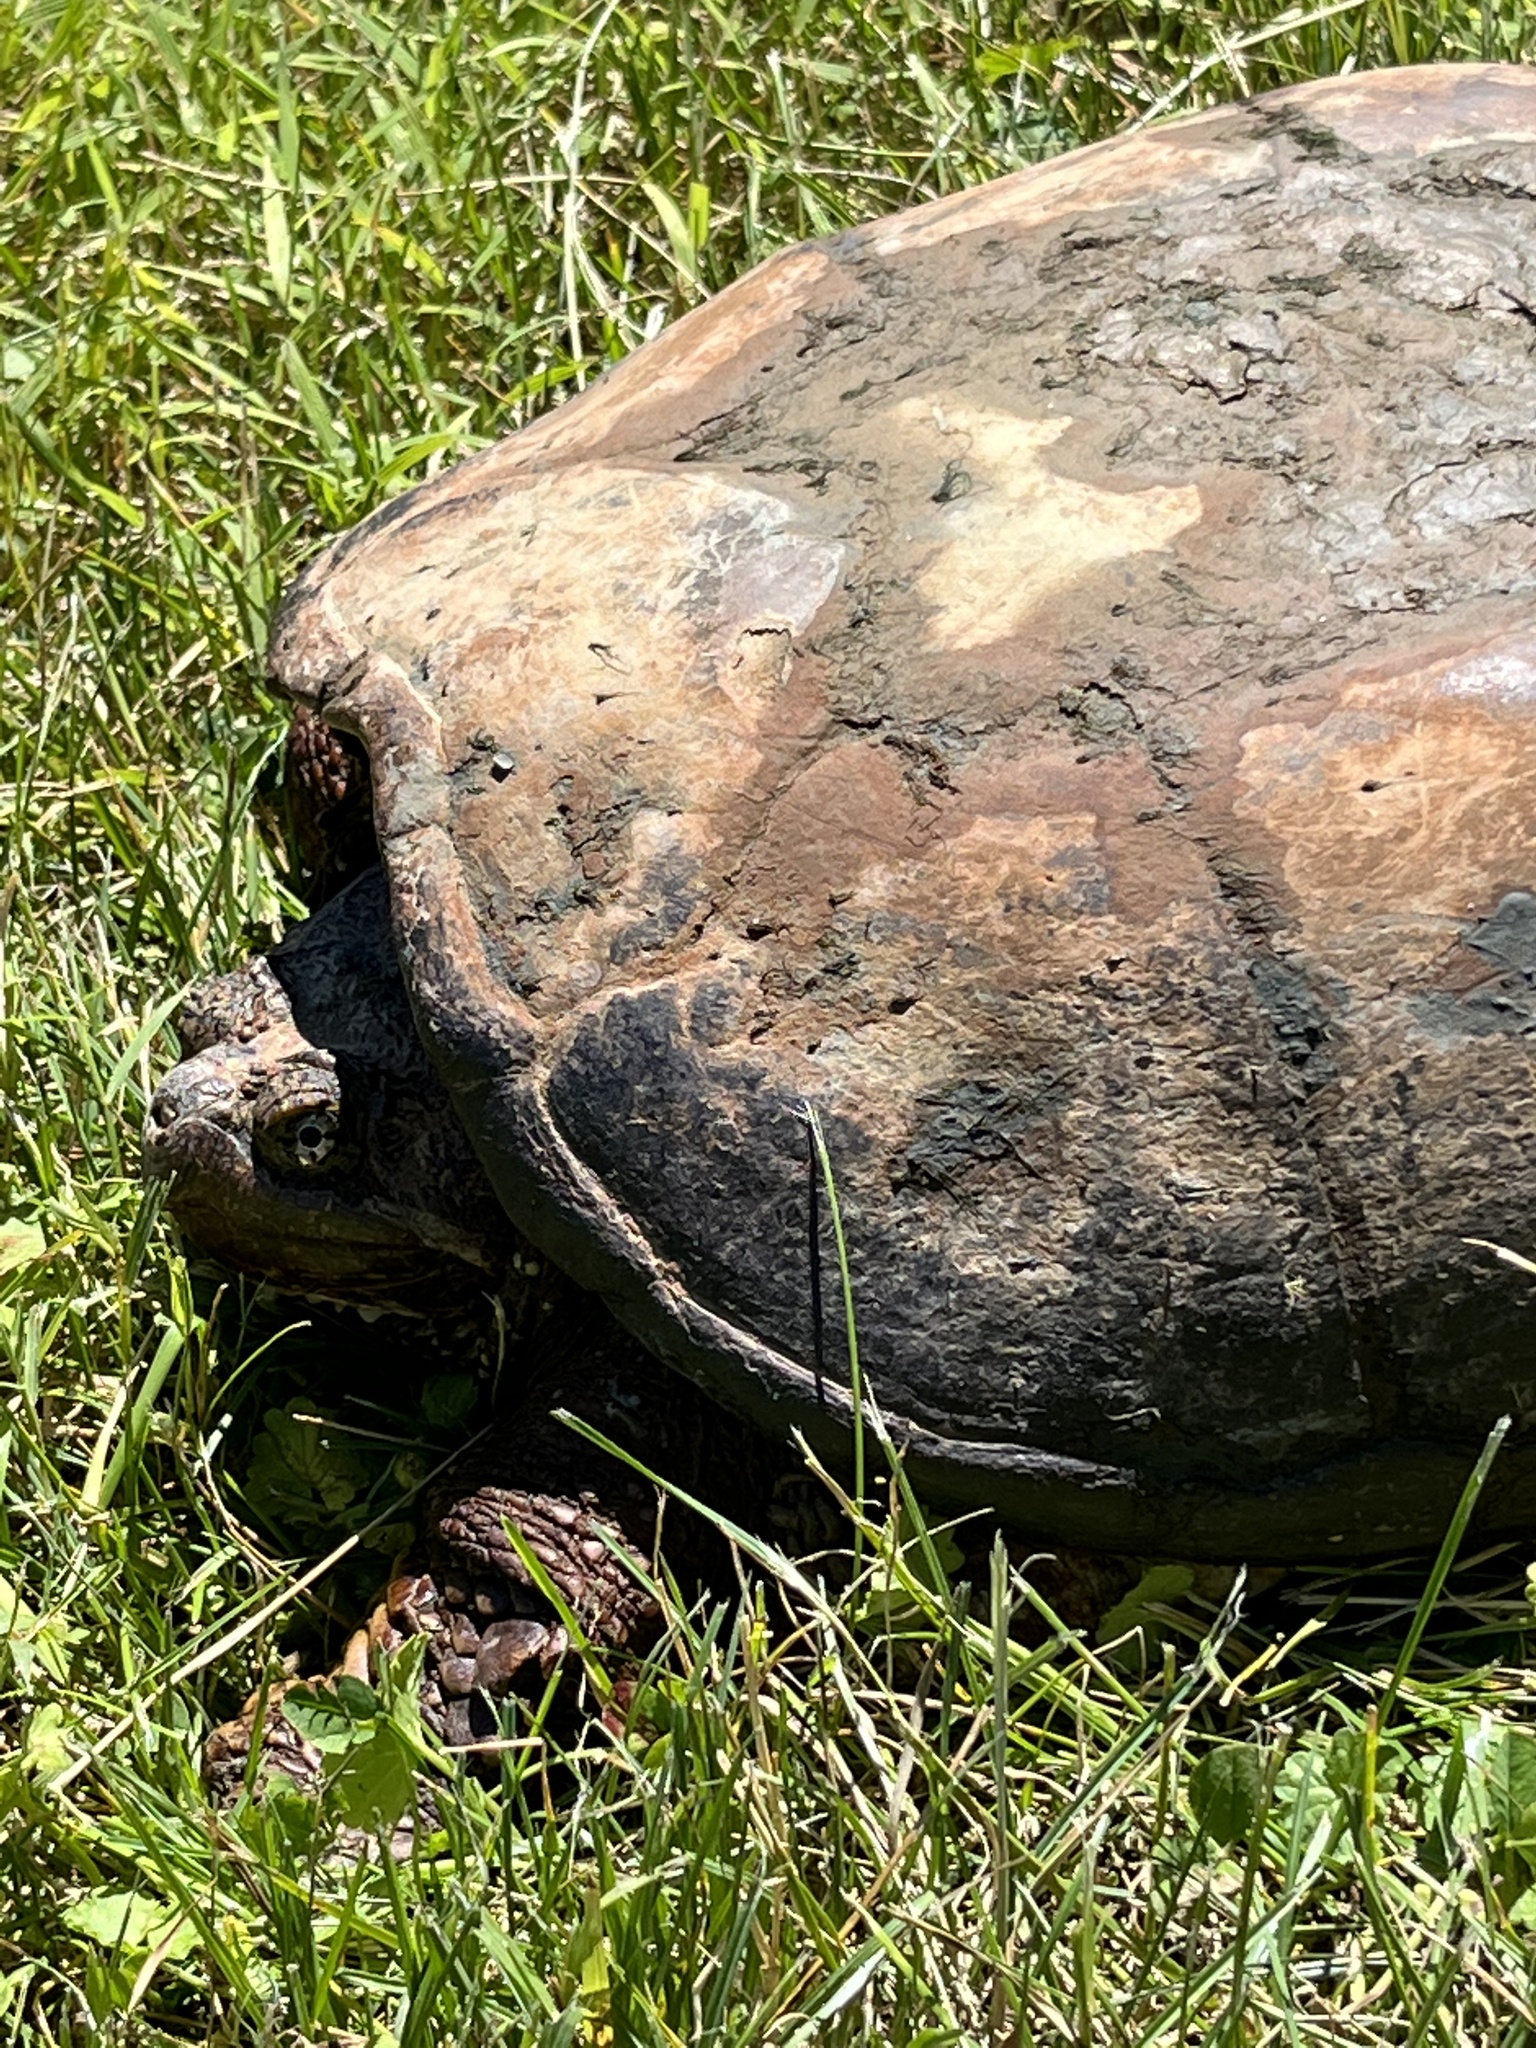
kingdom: Animalia
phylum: Chordata
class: Testudines
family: Chelydridae
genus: Chelydra
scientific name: Chelydra serpentina
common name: Common snapping turtle
